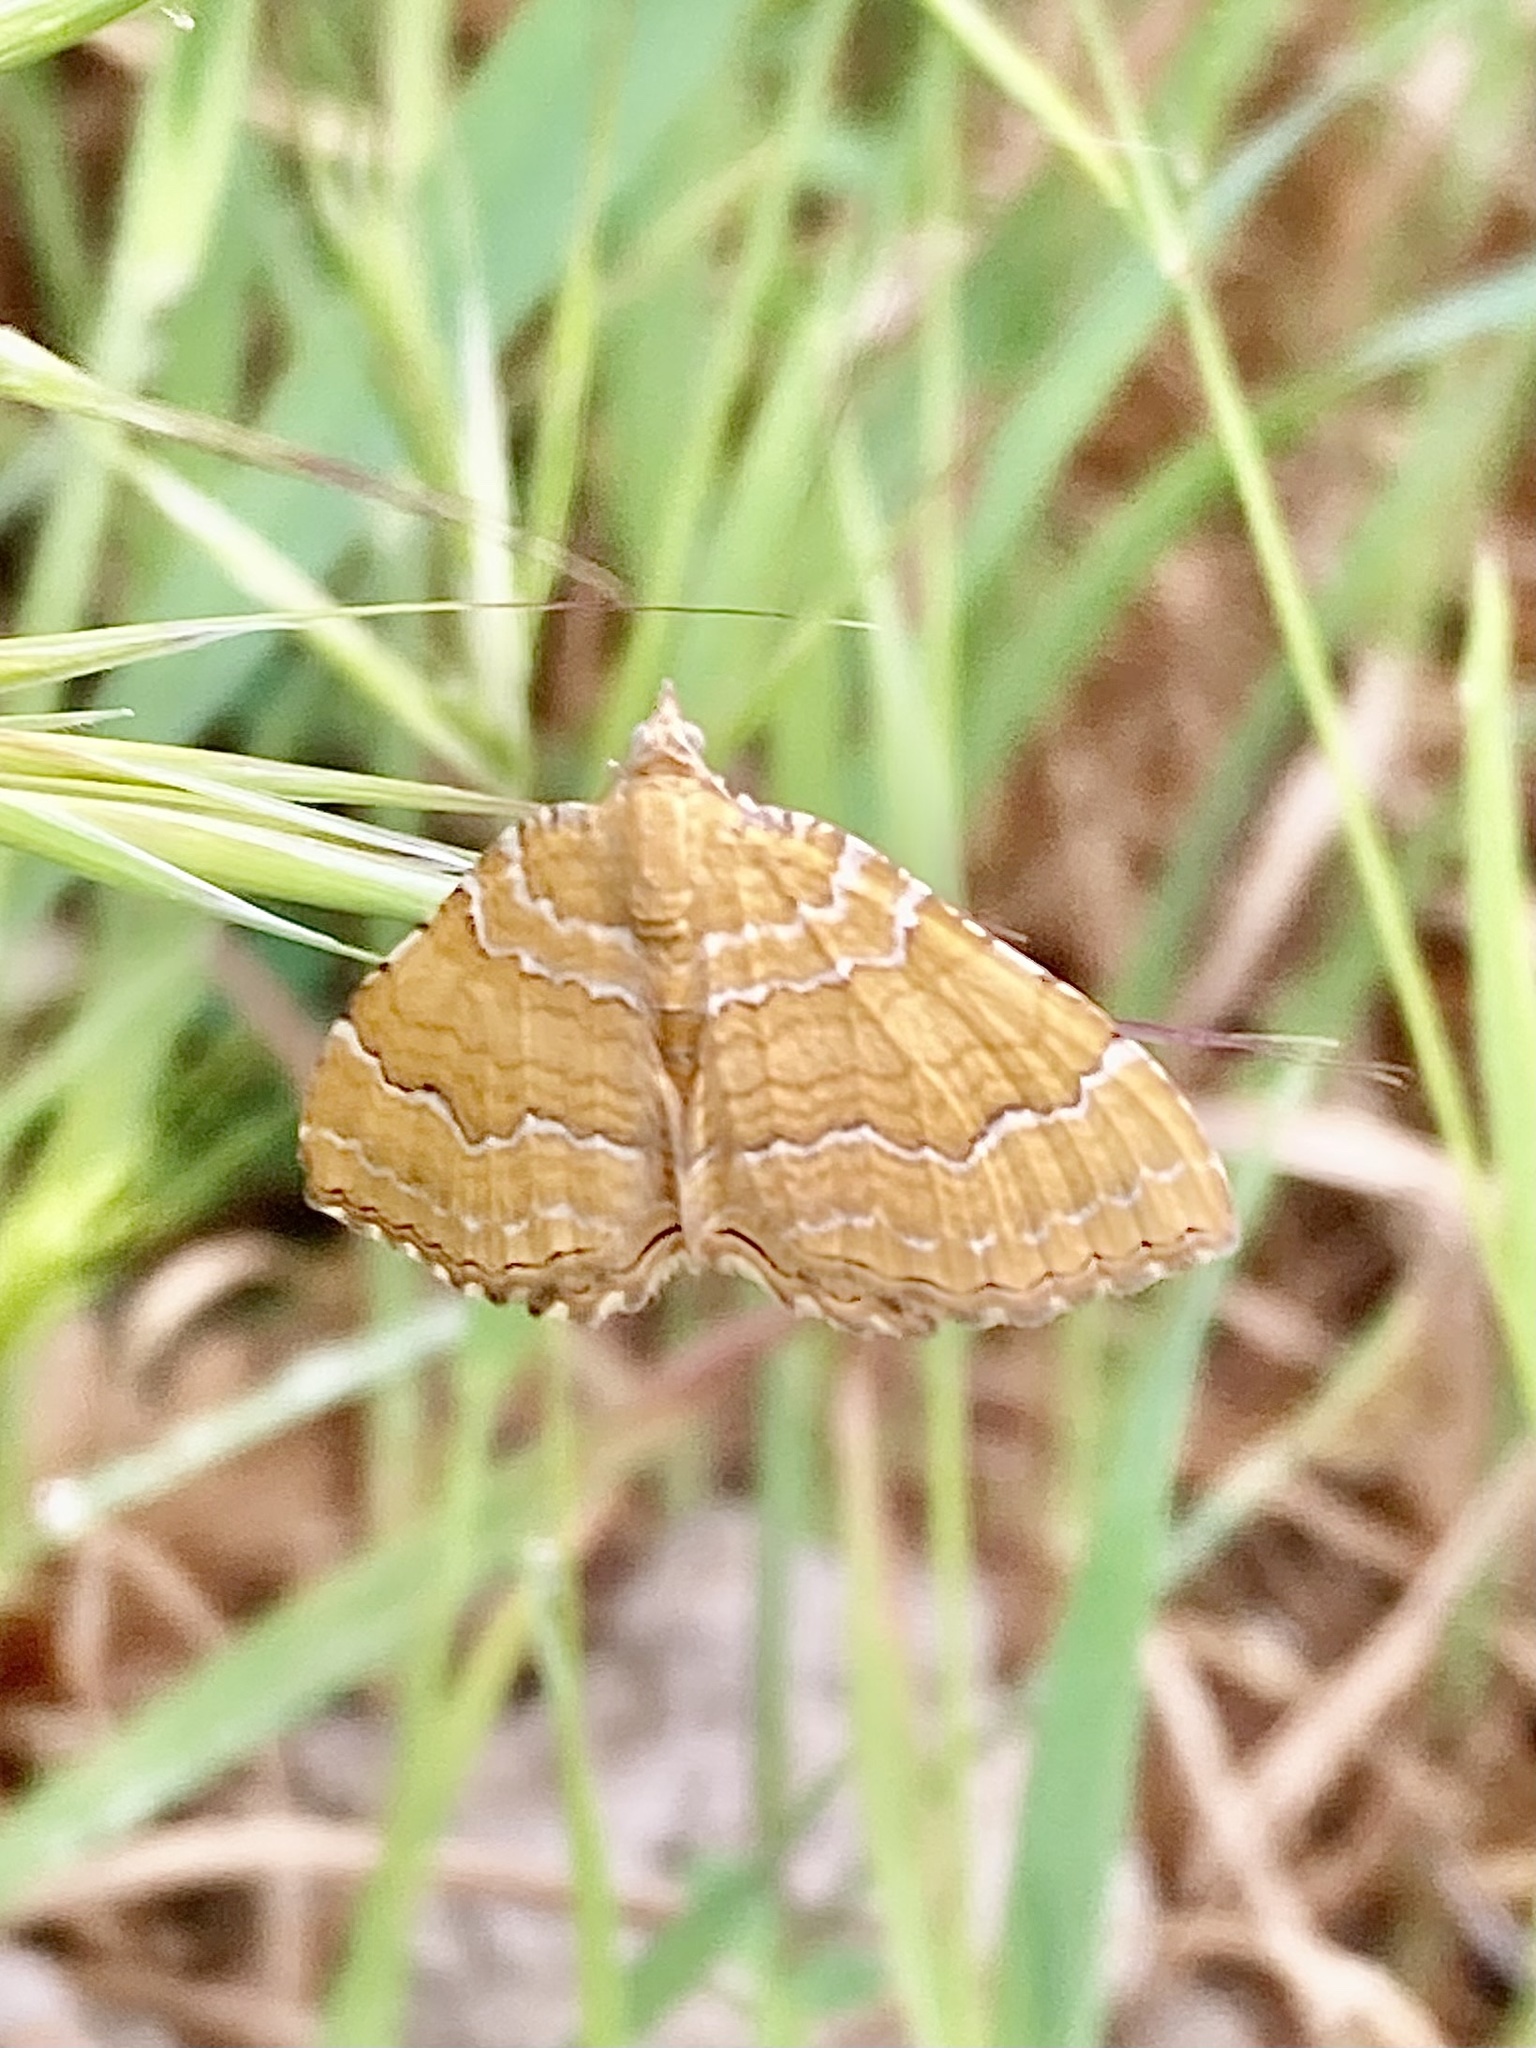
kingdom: Animalia
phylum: Arthropoda
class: Insecta
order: Lepidoptera
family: Geometridae
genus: Camptogramma
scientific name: Camptogramma bilineata
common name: Yellow shell
